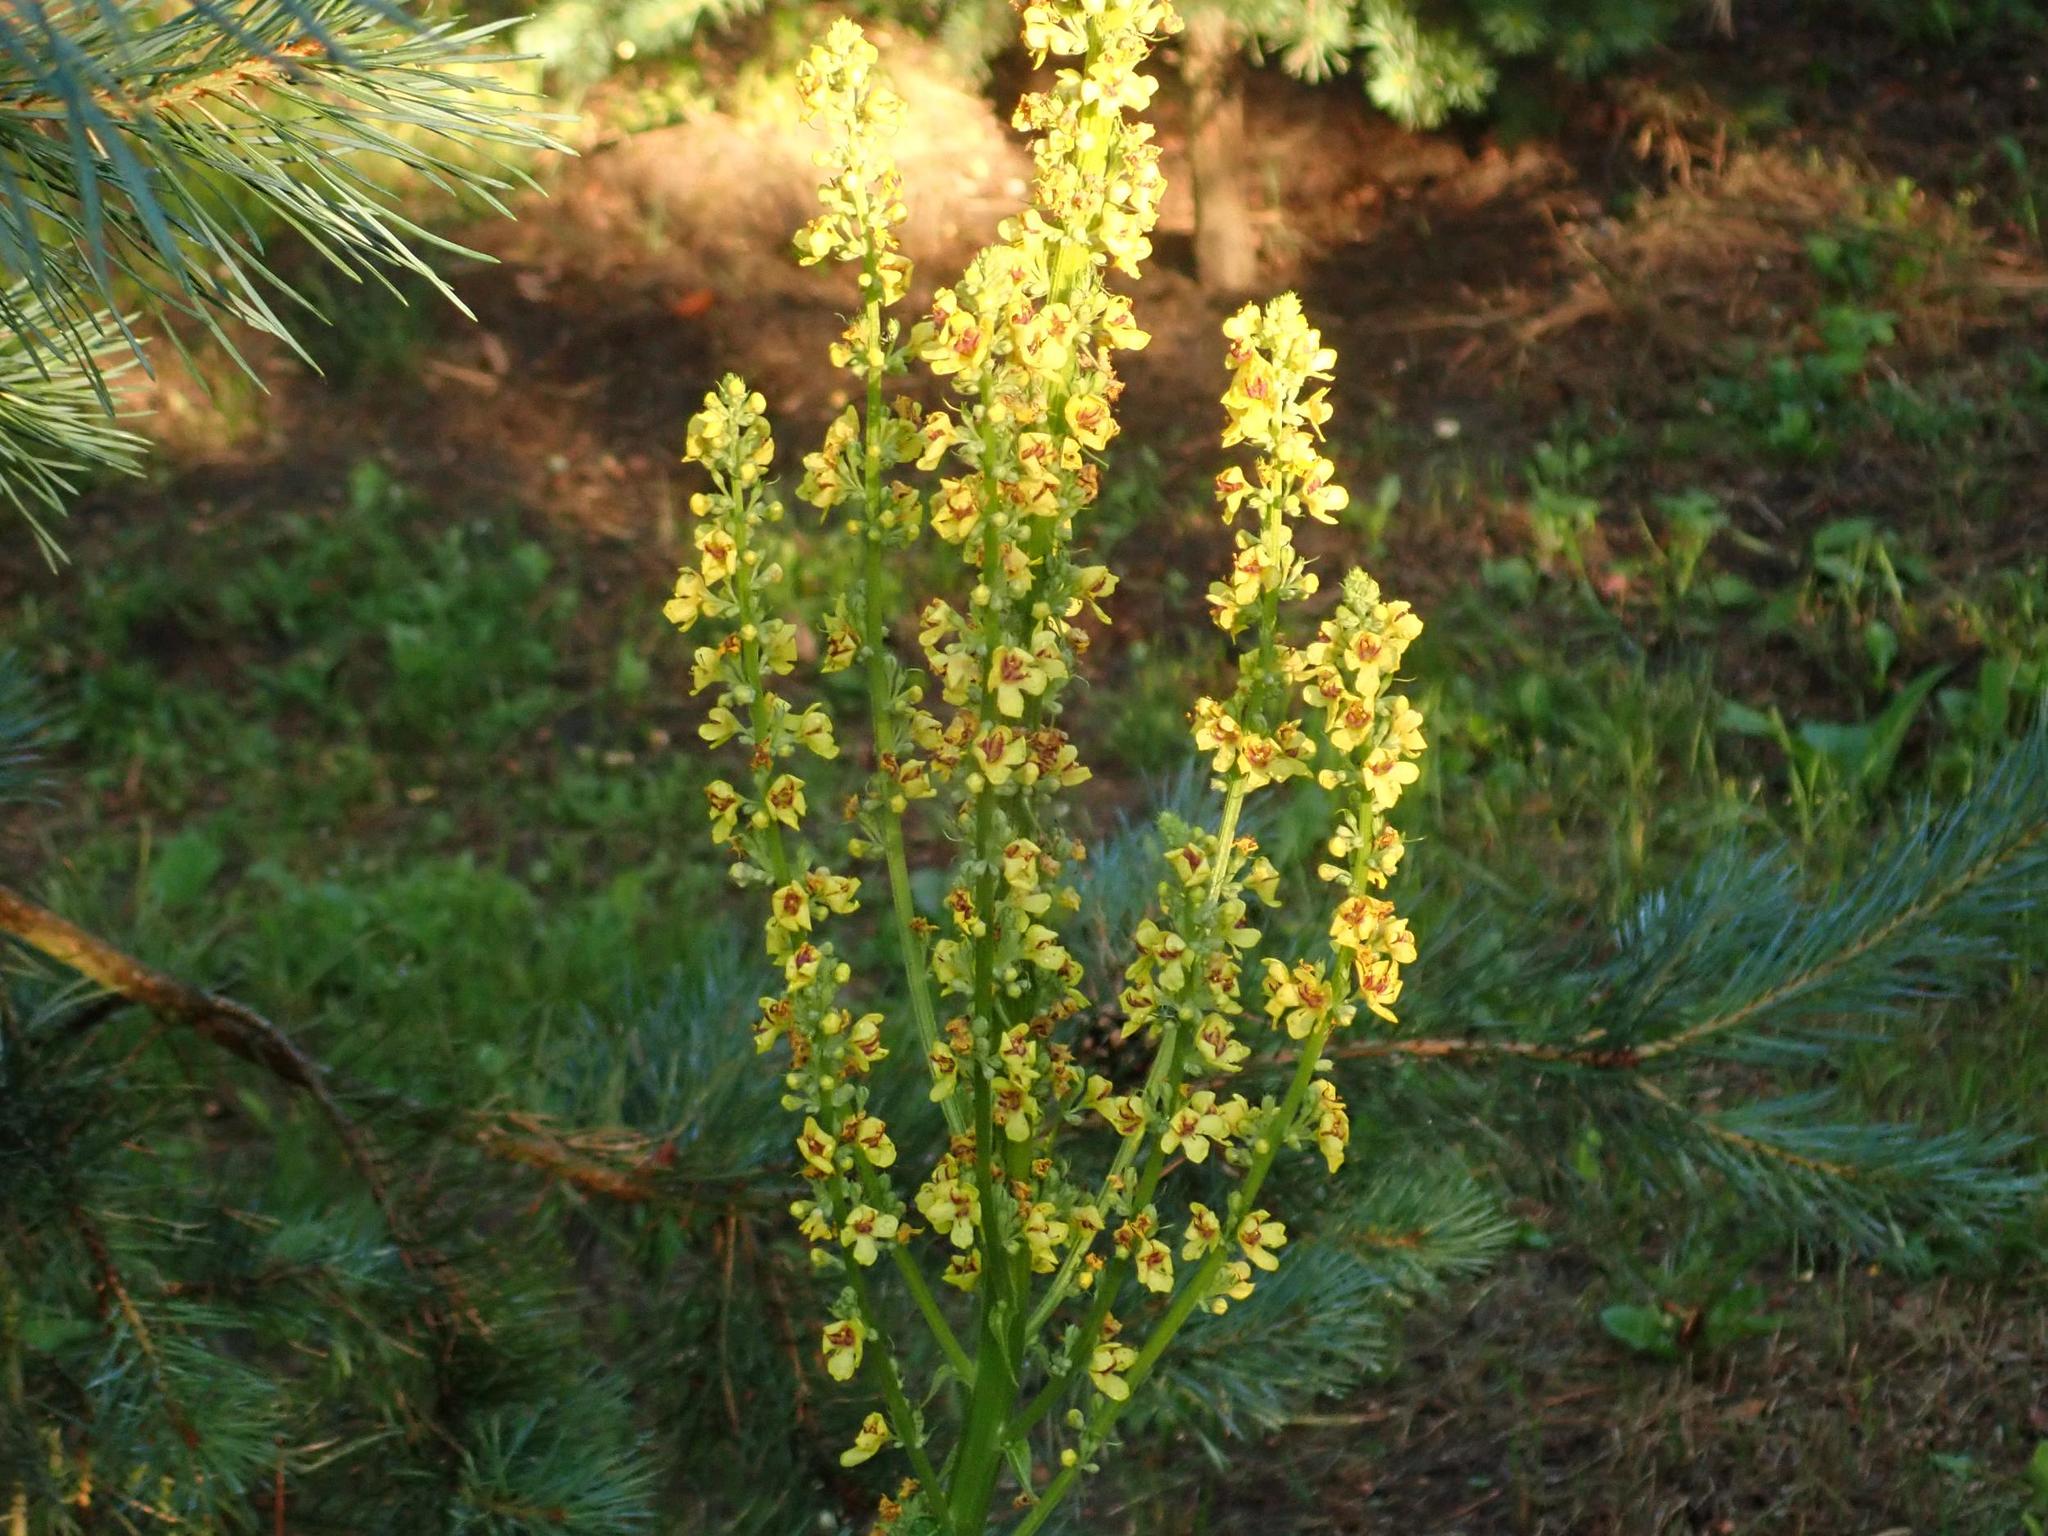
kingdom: Plantae
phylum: Tracheophyta
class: Magnoliopsida
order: Lamiales
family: Scrophulariaceae
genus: Verbascum
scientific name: Verbascum nigrum
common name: Dark mullein
